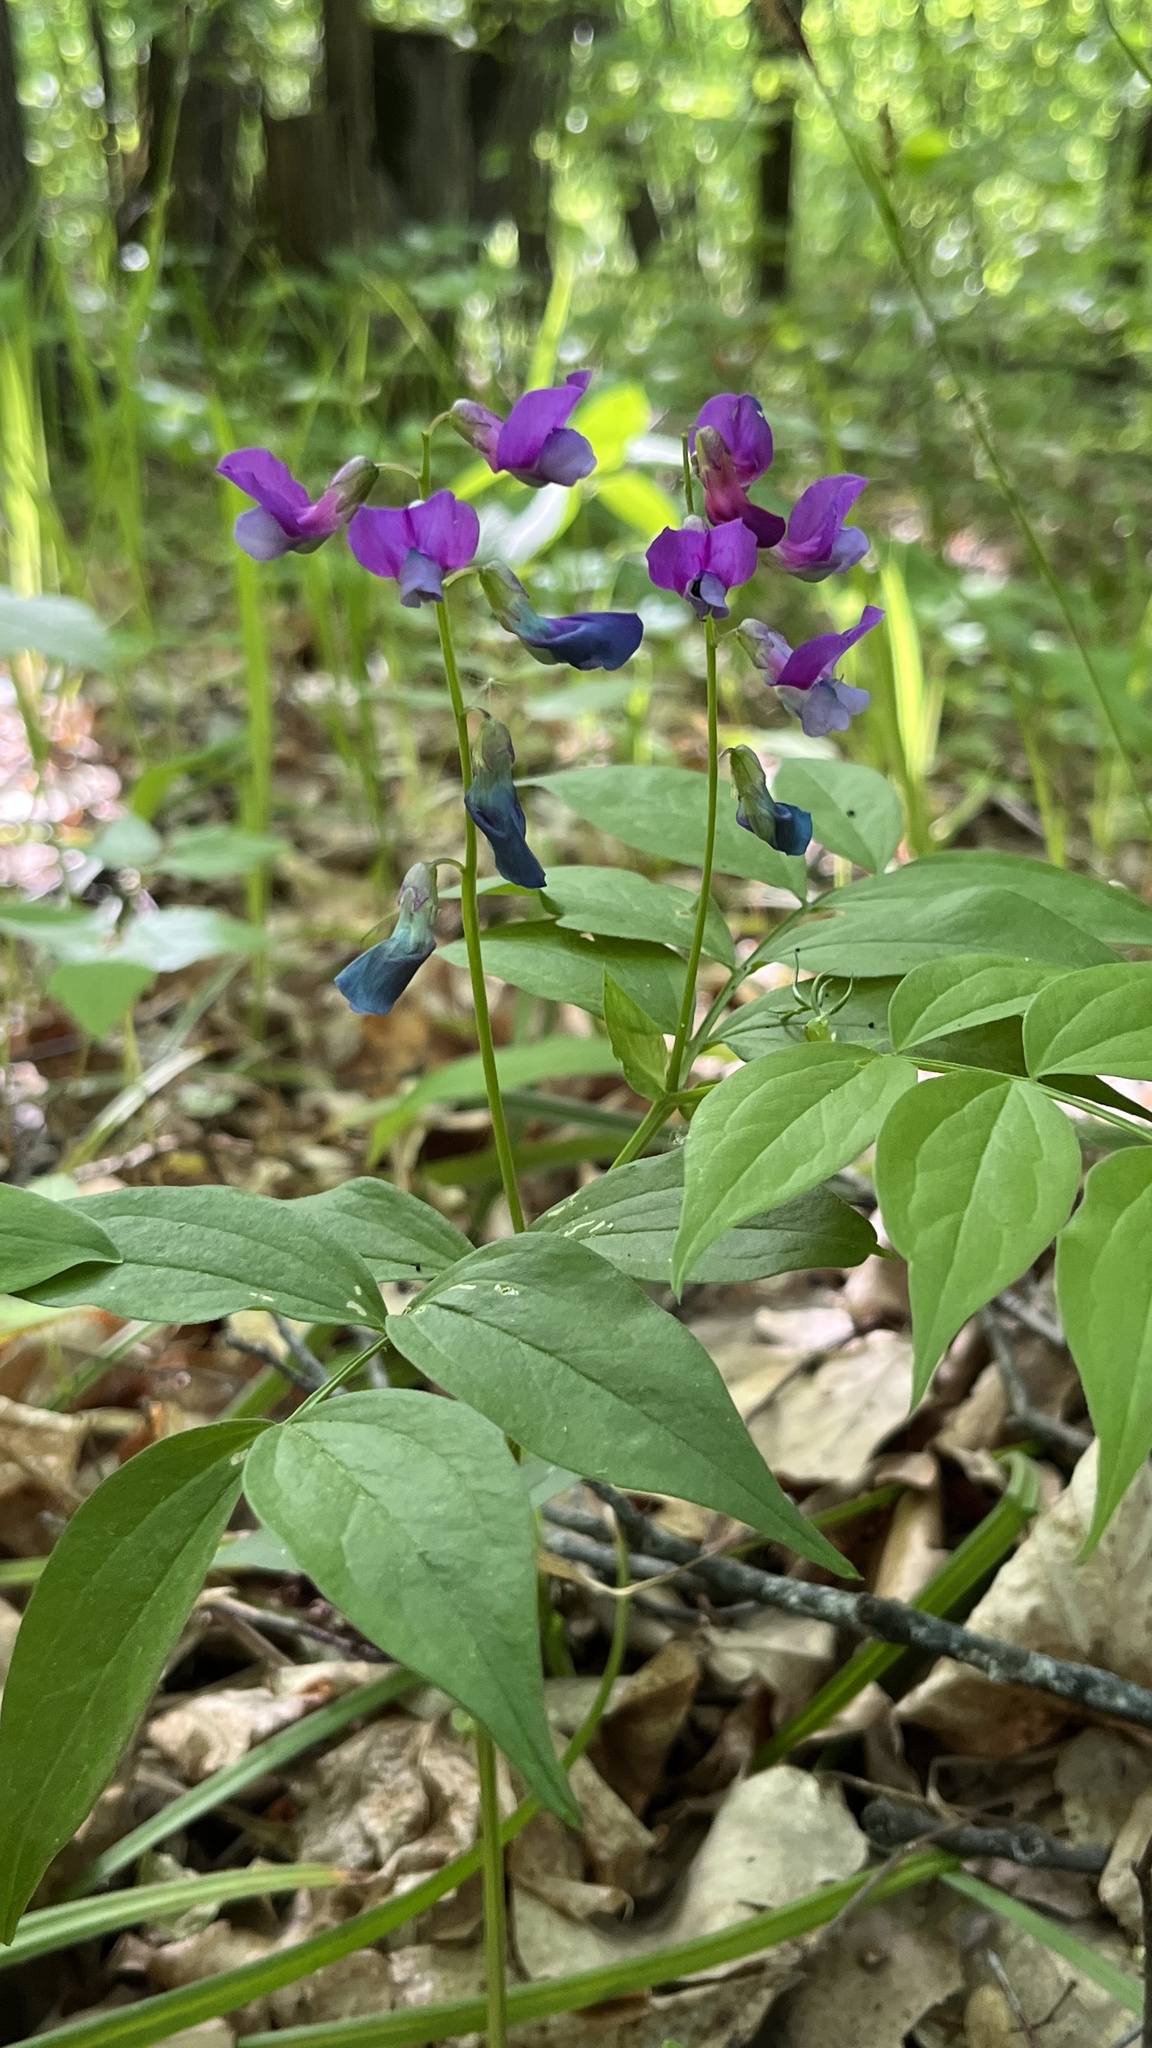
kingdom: Plantae
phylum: Tracheophyta
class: Magnoliopsida
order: Fabales
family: Fabaceae
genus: Lathyrus
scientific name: Lathyrus vernus
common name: Spring pea
